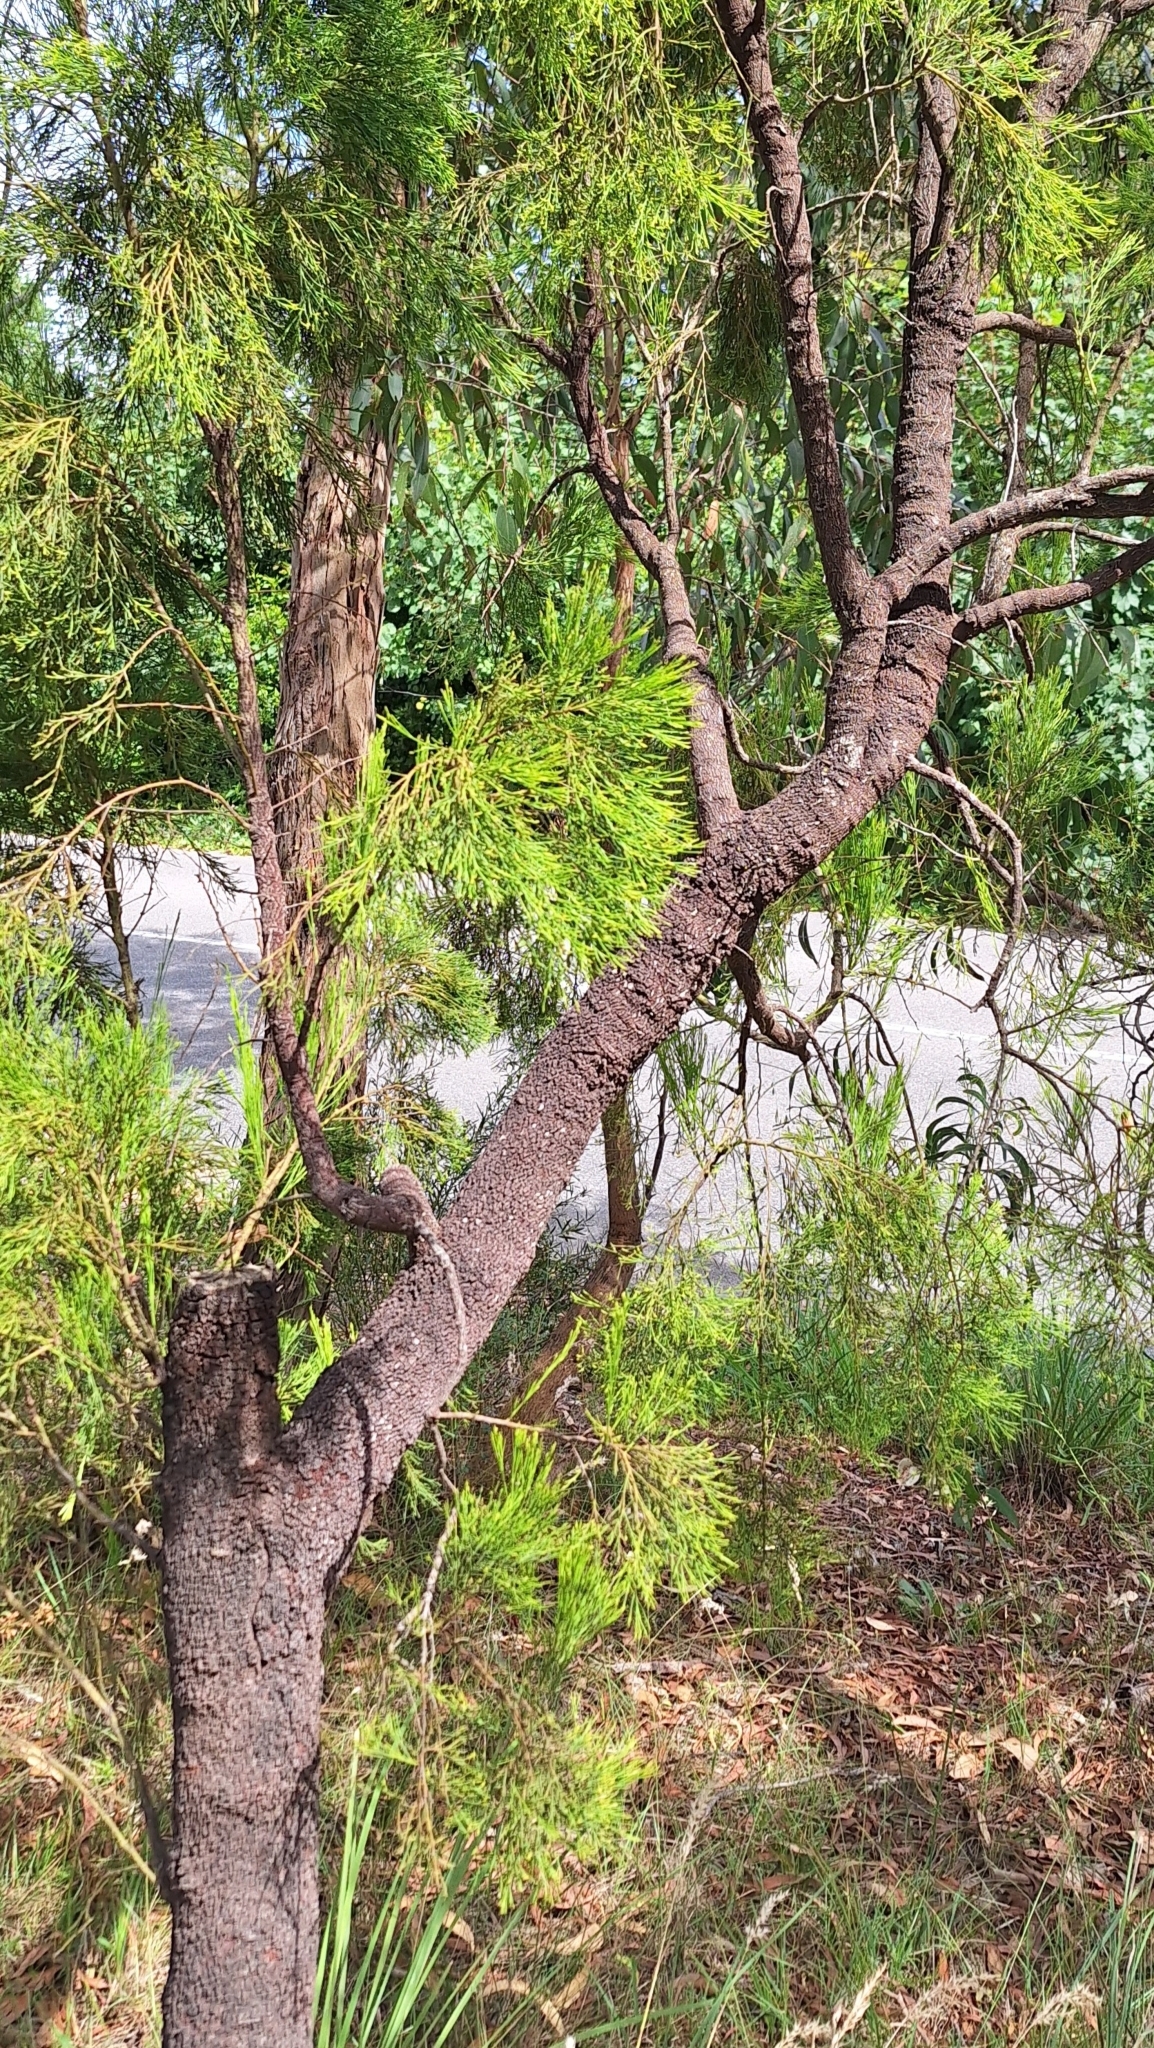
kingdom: Plantae
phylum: Tracheophyta
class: Magnoliopsida
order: Santalales
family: Santalaceae
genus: Exocarpos
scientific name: Exocarpos cupressiformis
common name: Cherry ballart
